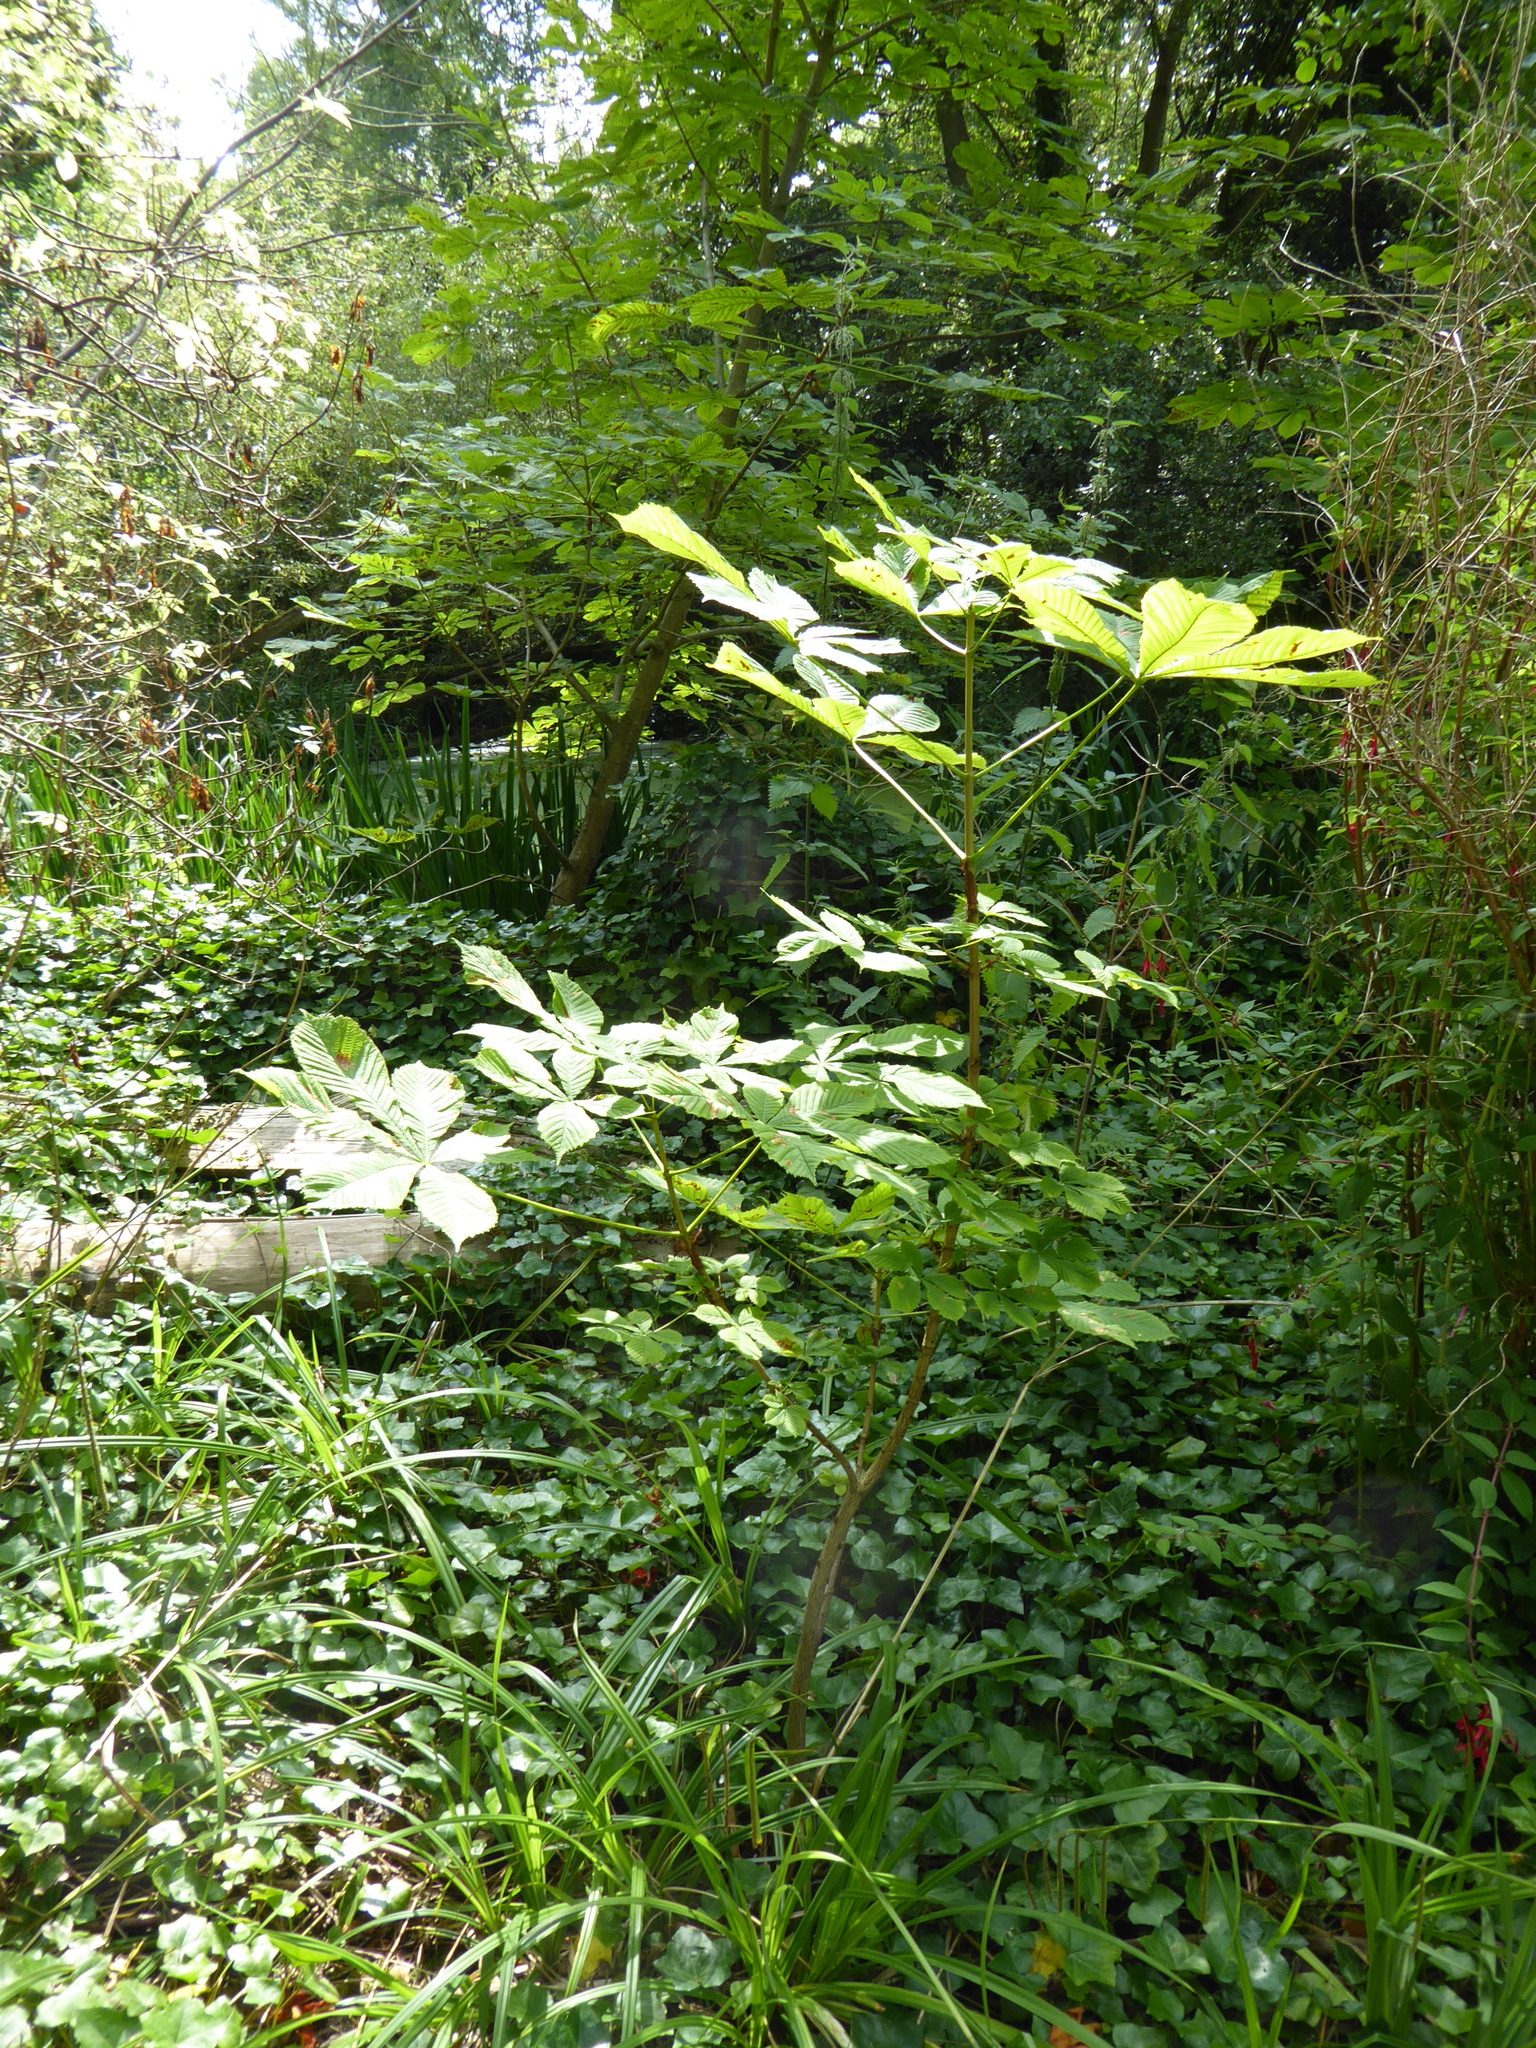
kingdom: Plantae
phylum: Tracheophyta
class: Magnoliopsida
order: Sapindales
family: Sapindaceae
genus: Aesculus
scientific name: Aesculus hippocastanum
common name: Horse-chestnut
